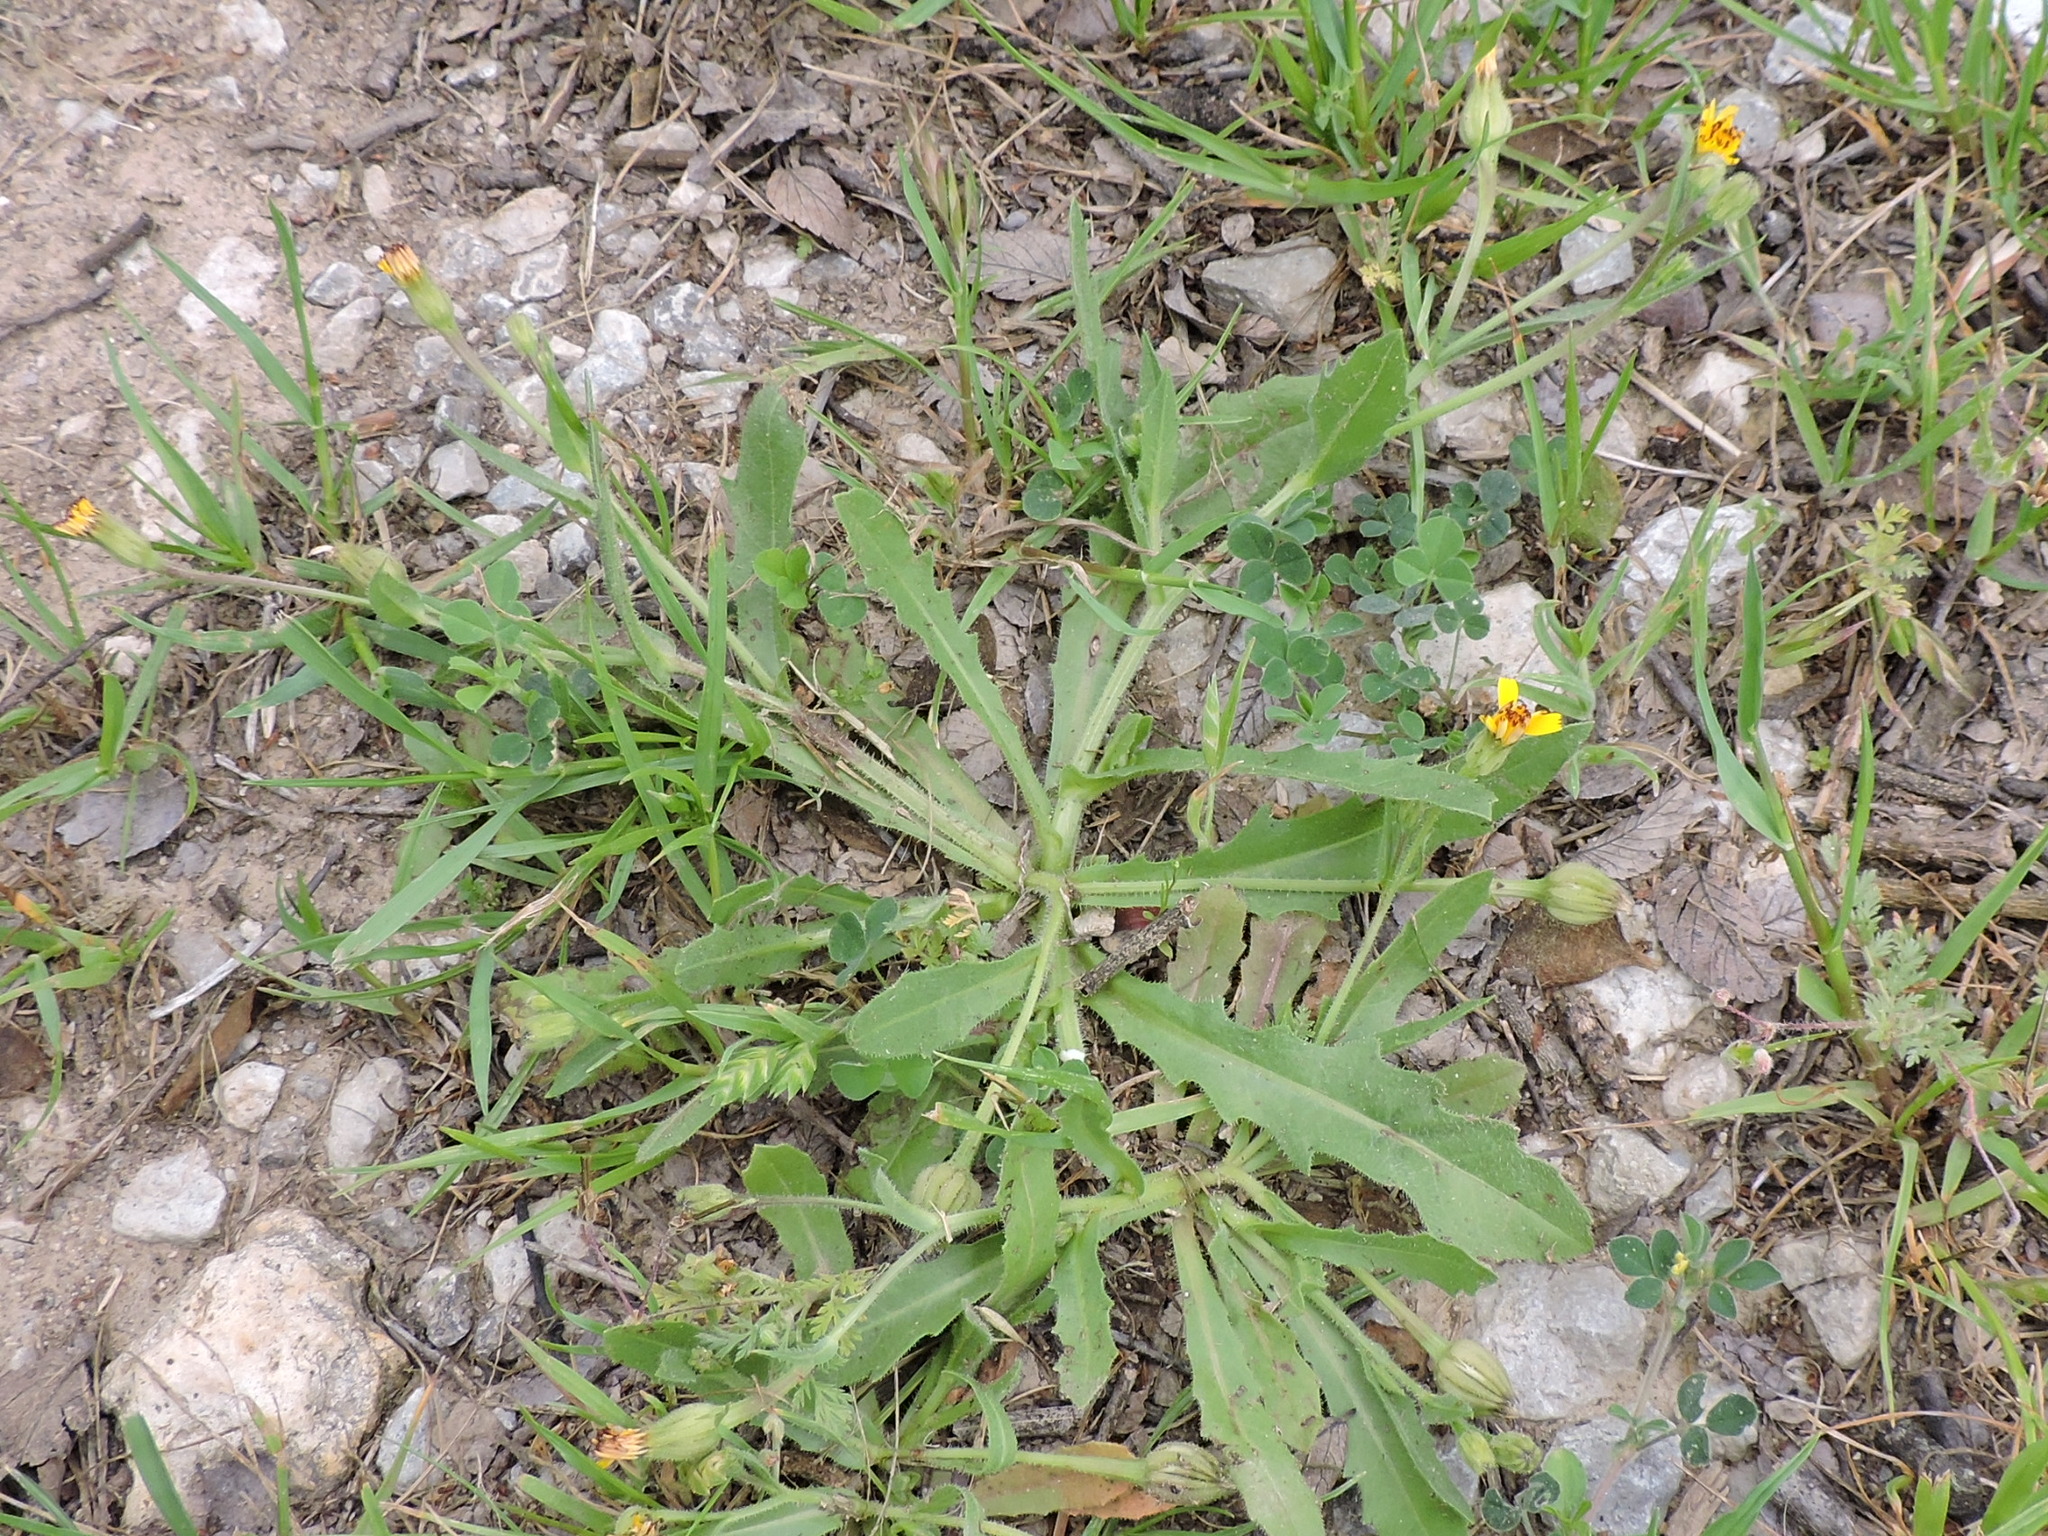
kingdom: Plantae
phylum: Tracheophyta
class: Magnoliopsida
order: Asterales
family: Asteraceae
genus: Hedypnois
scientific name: Hedypnois rhagadioloides
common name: Cretan weed
